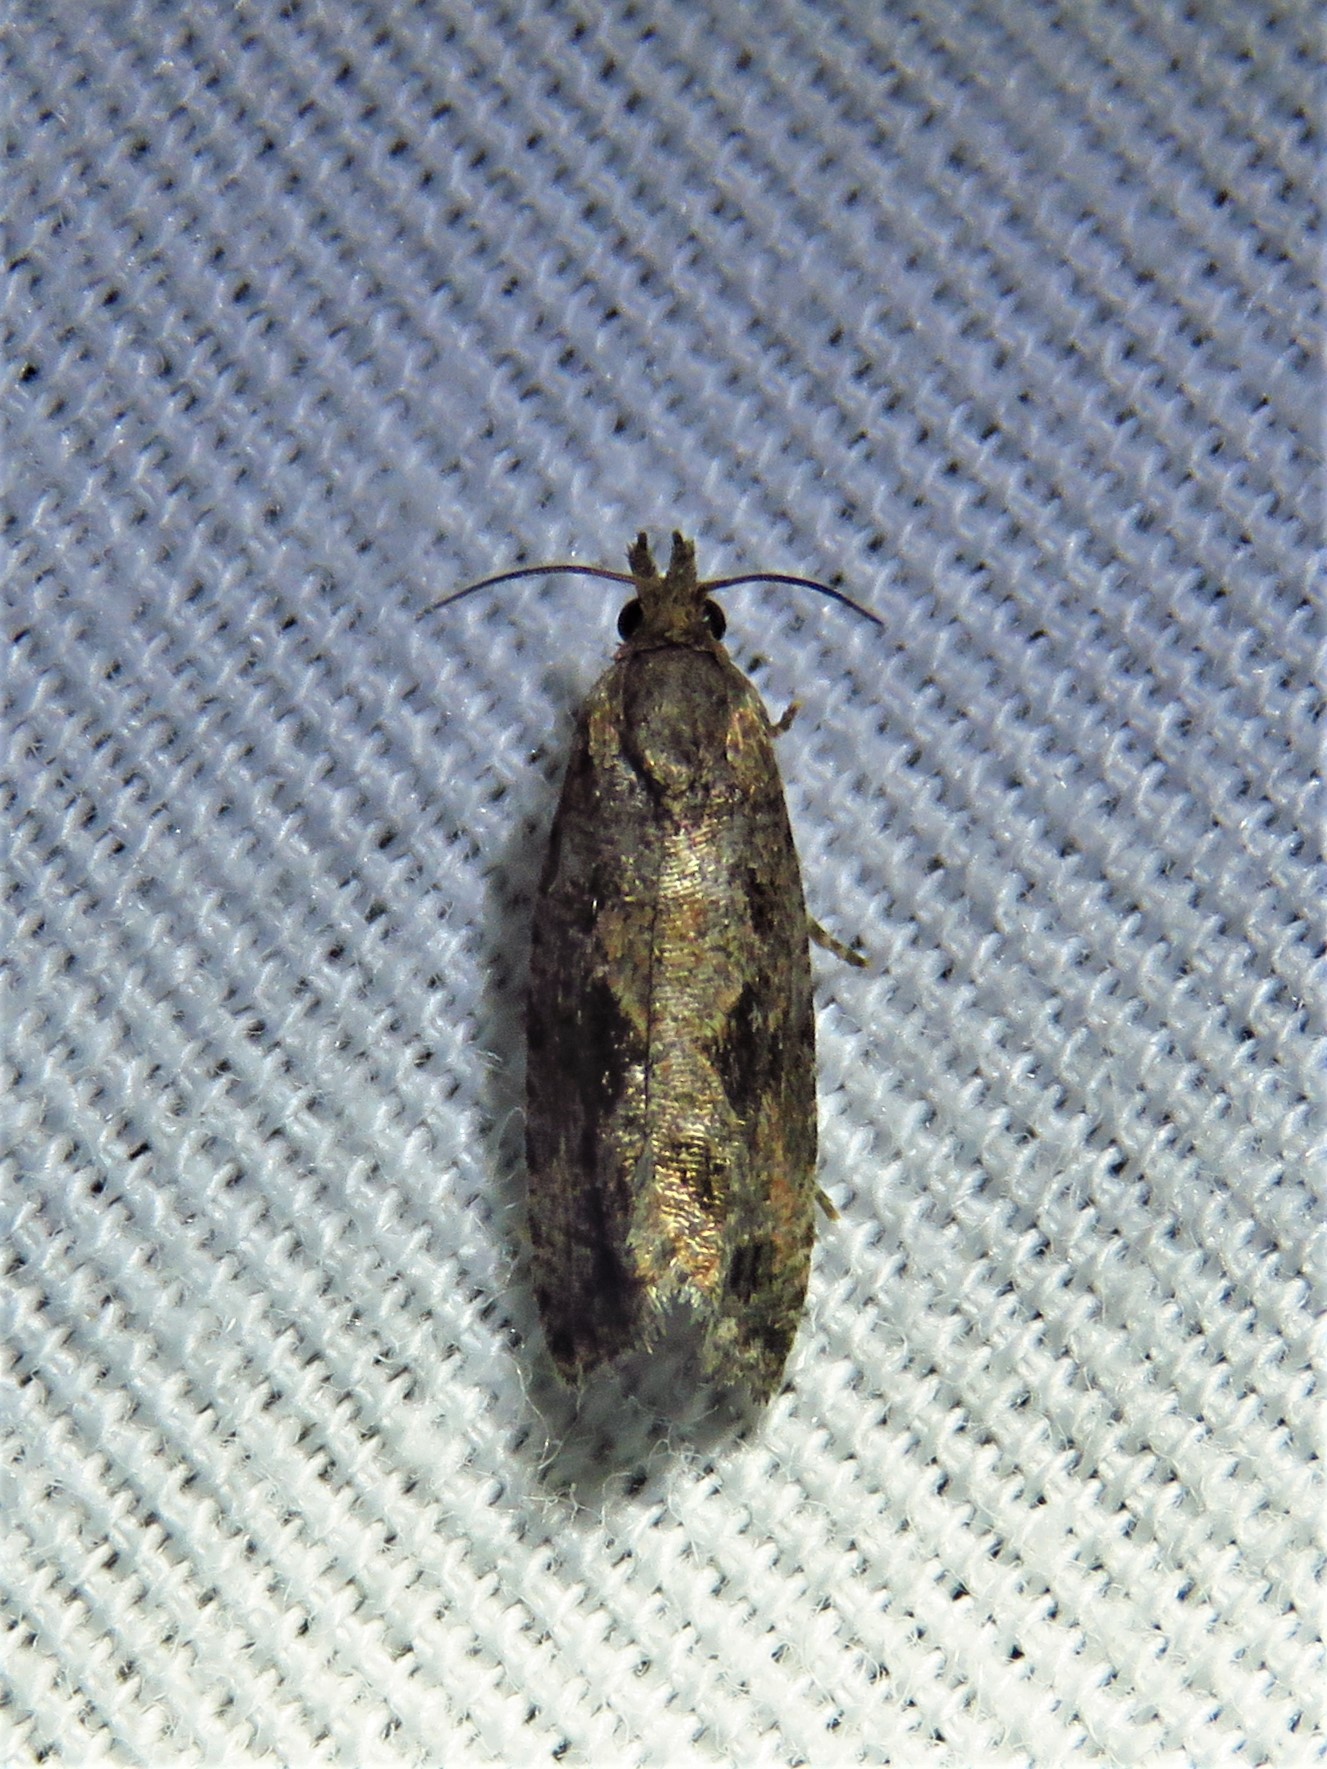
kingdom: Animalia
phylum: Arthropoda
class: Insecta
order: Lepidoptera
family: Tortricidae
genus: Endothenia
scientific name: Endothenia nubilana
